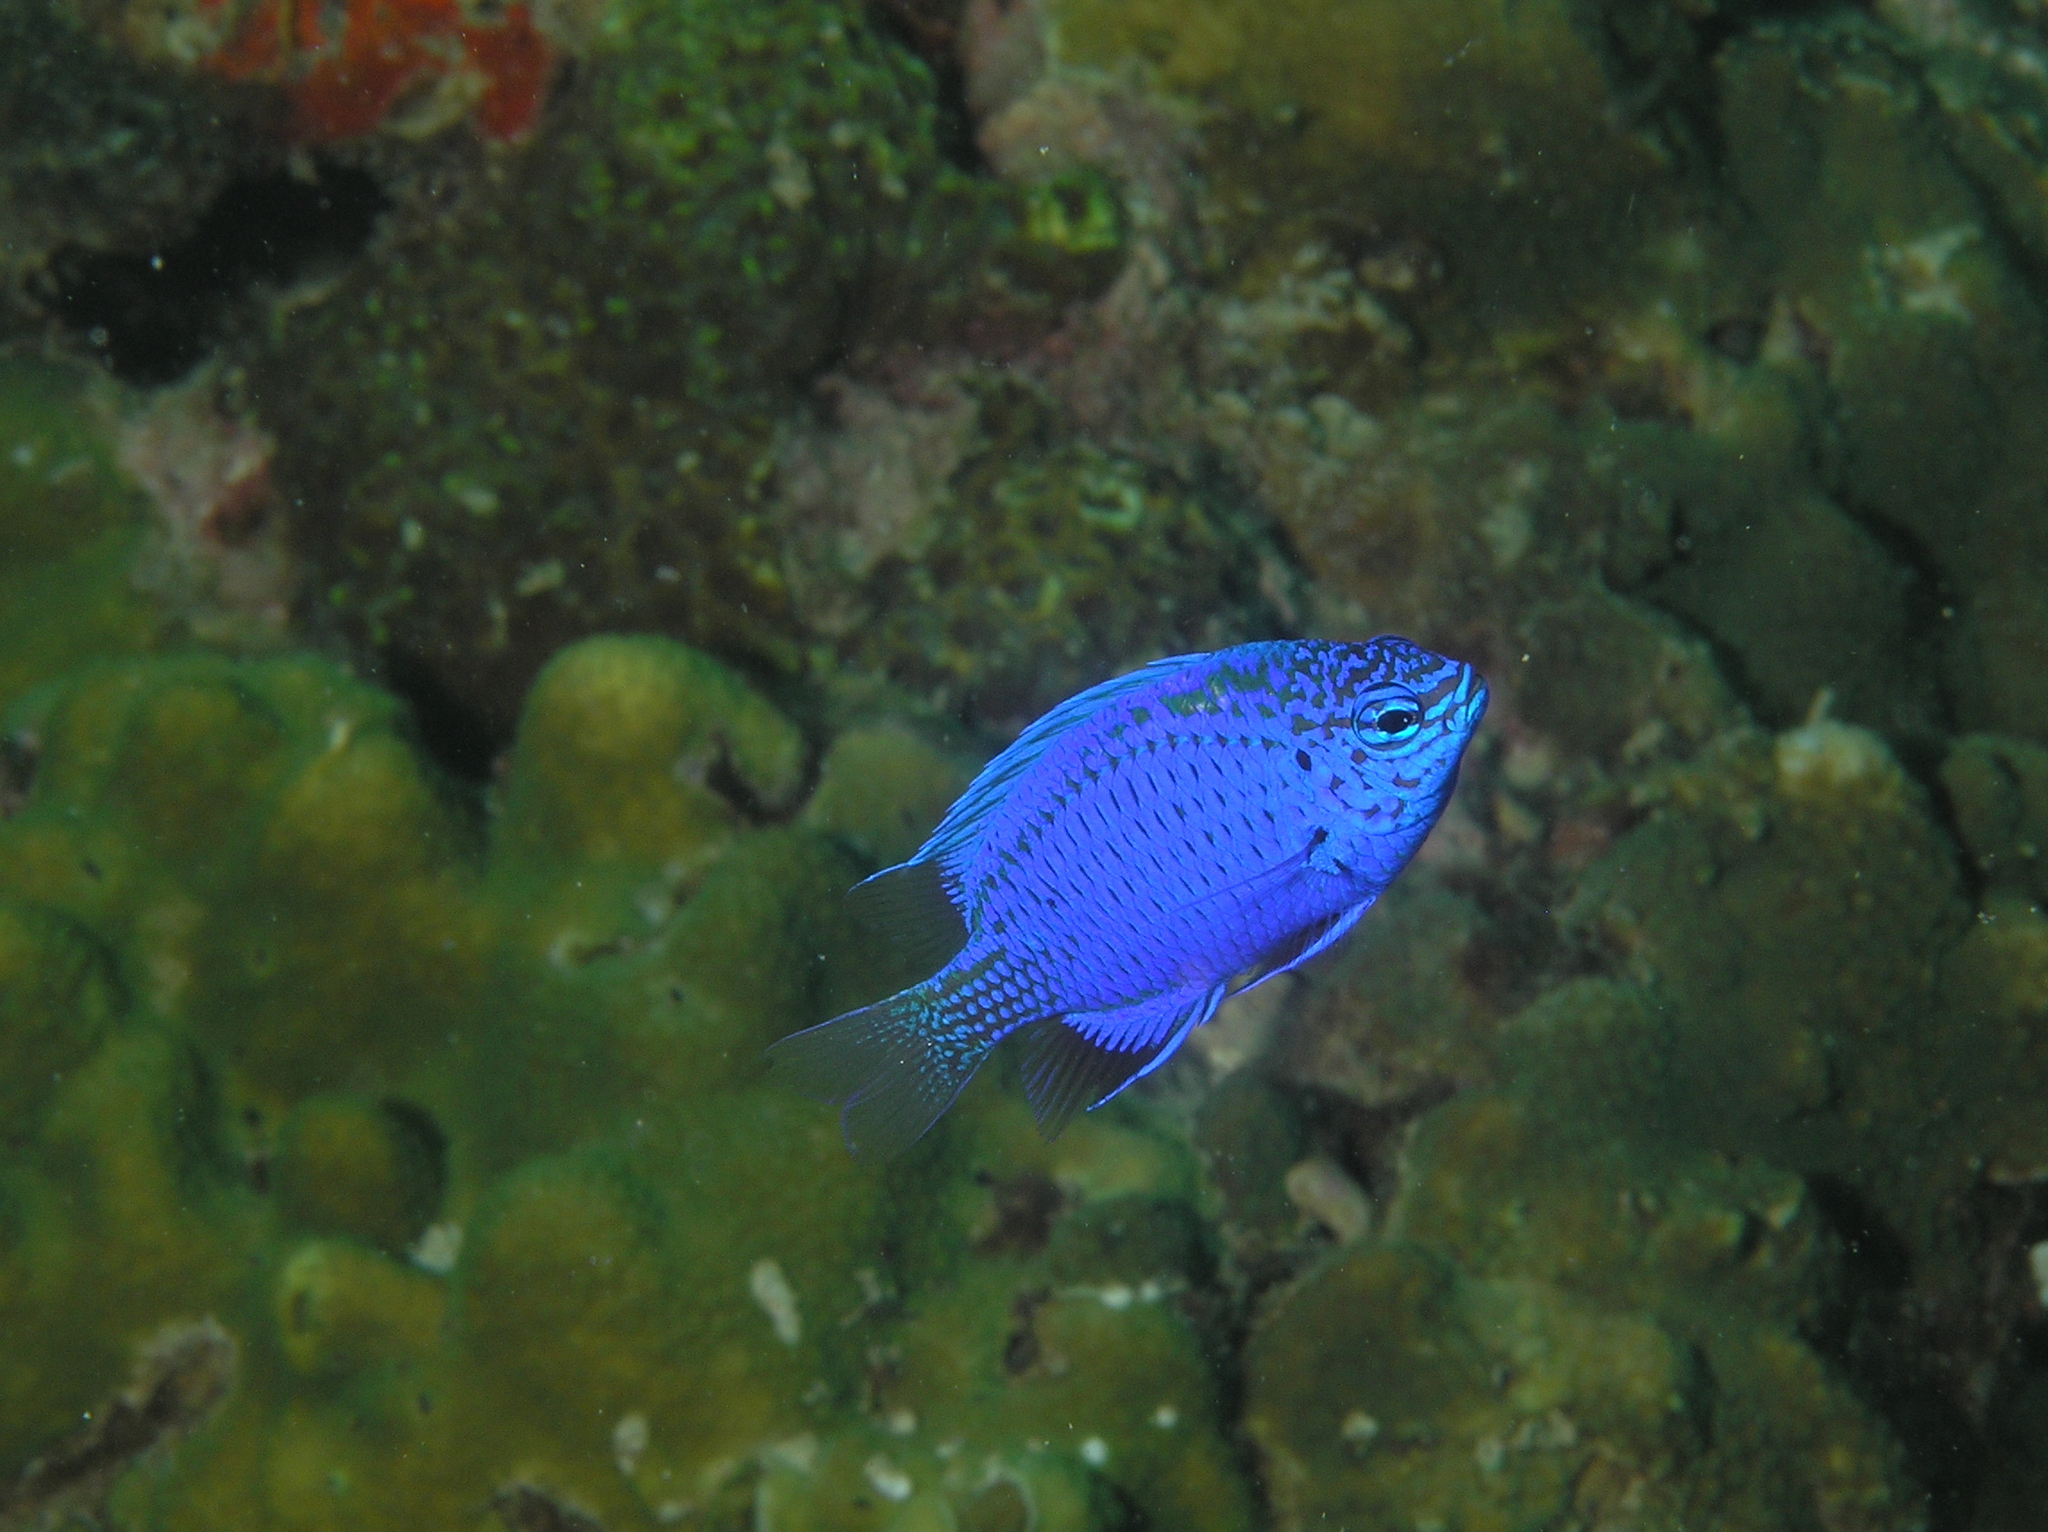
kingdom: Animalia
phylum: Chordata
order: Perciformes
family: Pomacentridae
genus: Chrysiptera
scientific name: Chrysiptera springeri
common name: Springer's demoiselle
